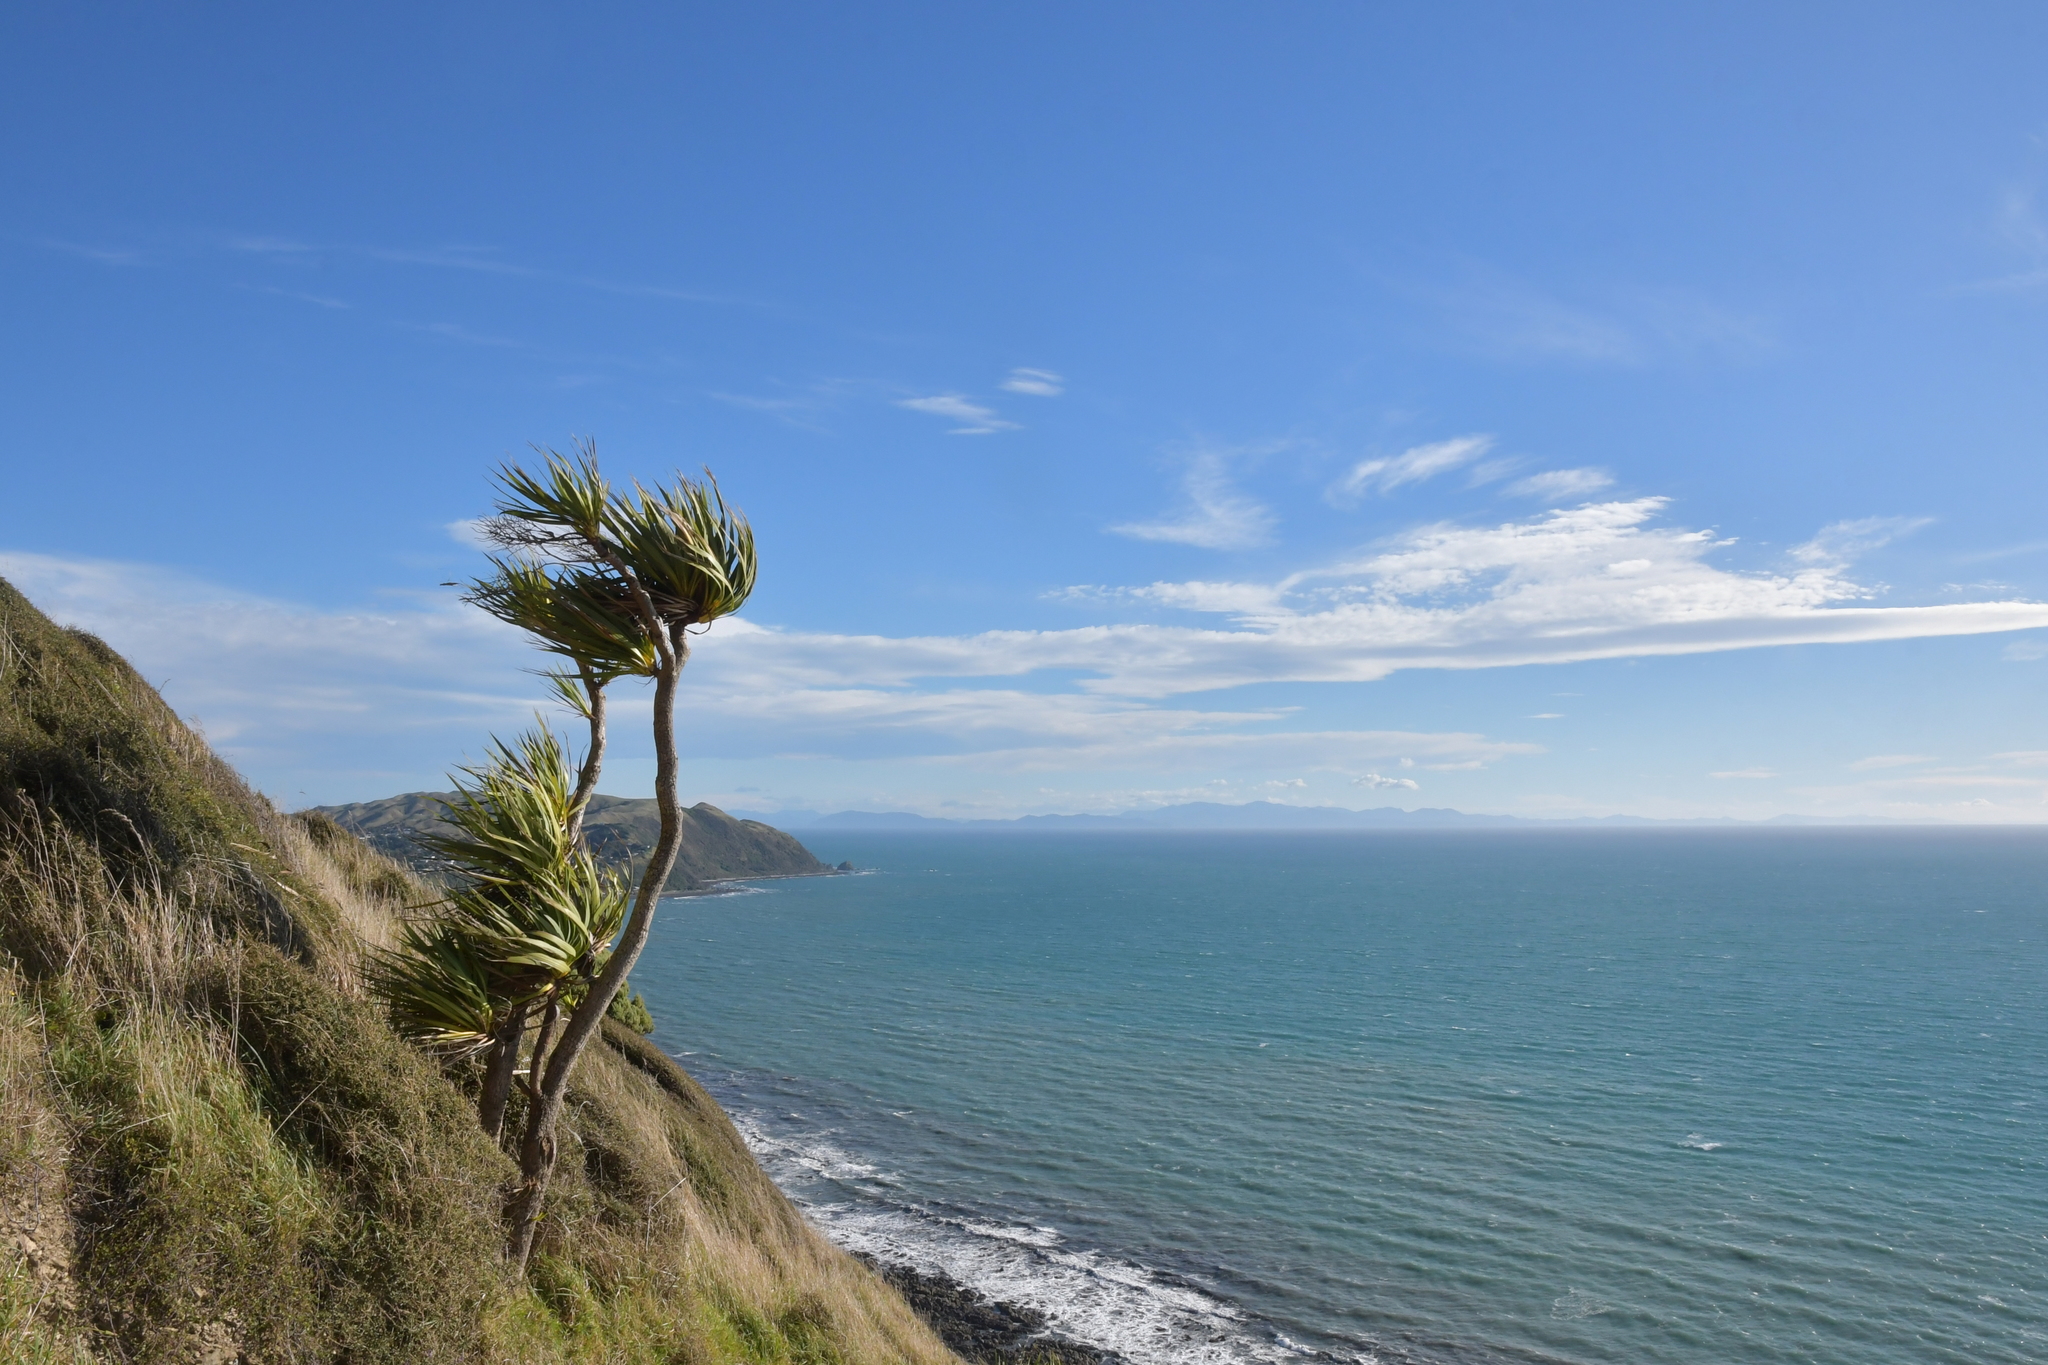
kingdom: Plantae
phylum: Tracheophyta
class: Liliopsida
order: Asparagales
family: Asparagaceae
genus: Cordyline
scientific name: Cordyline australis
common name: Cabbage-palm
